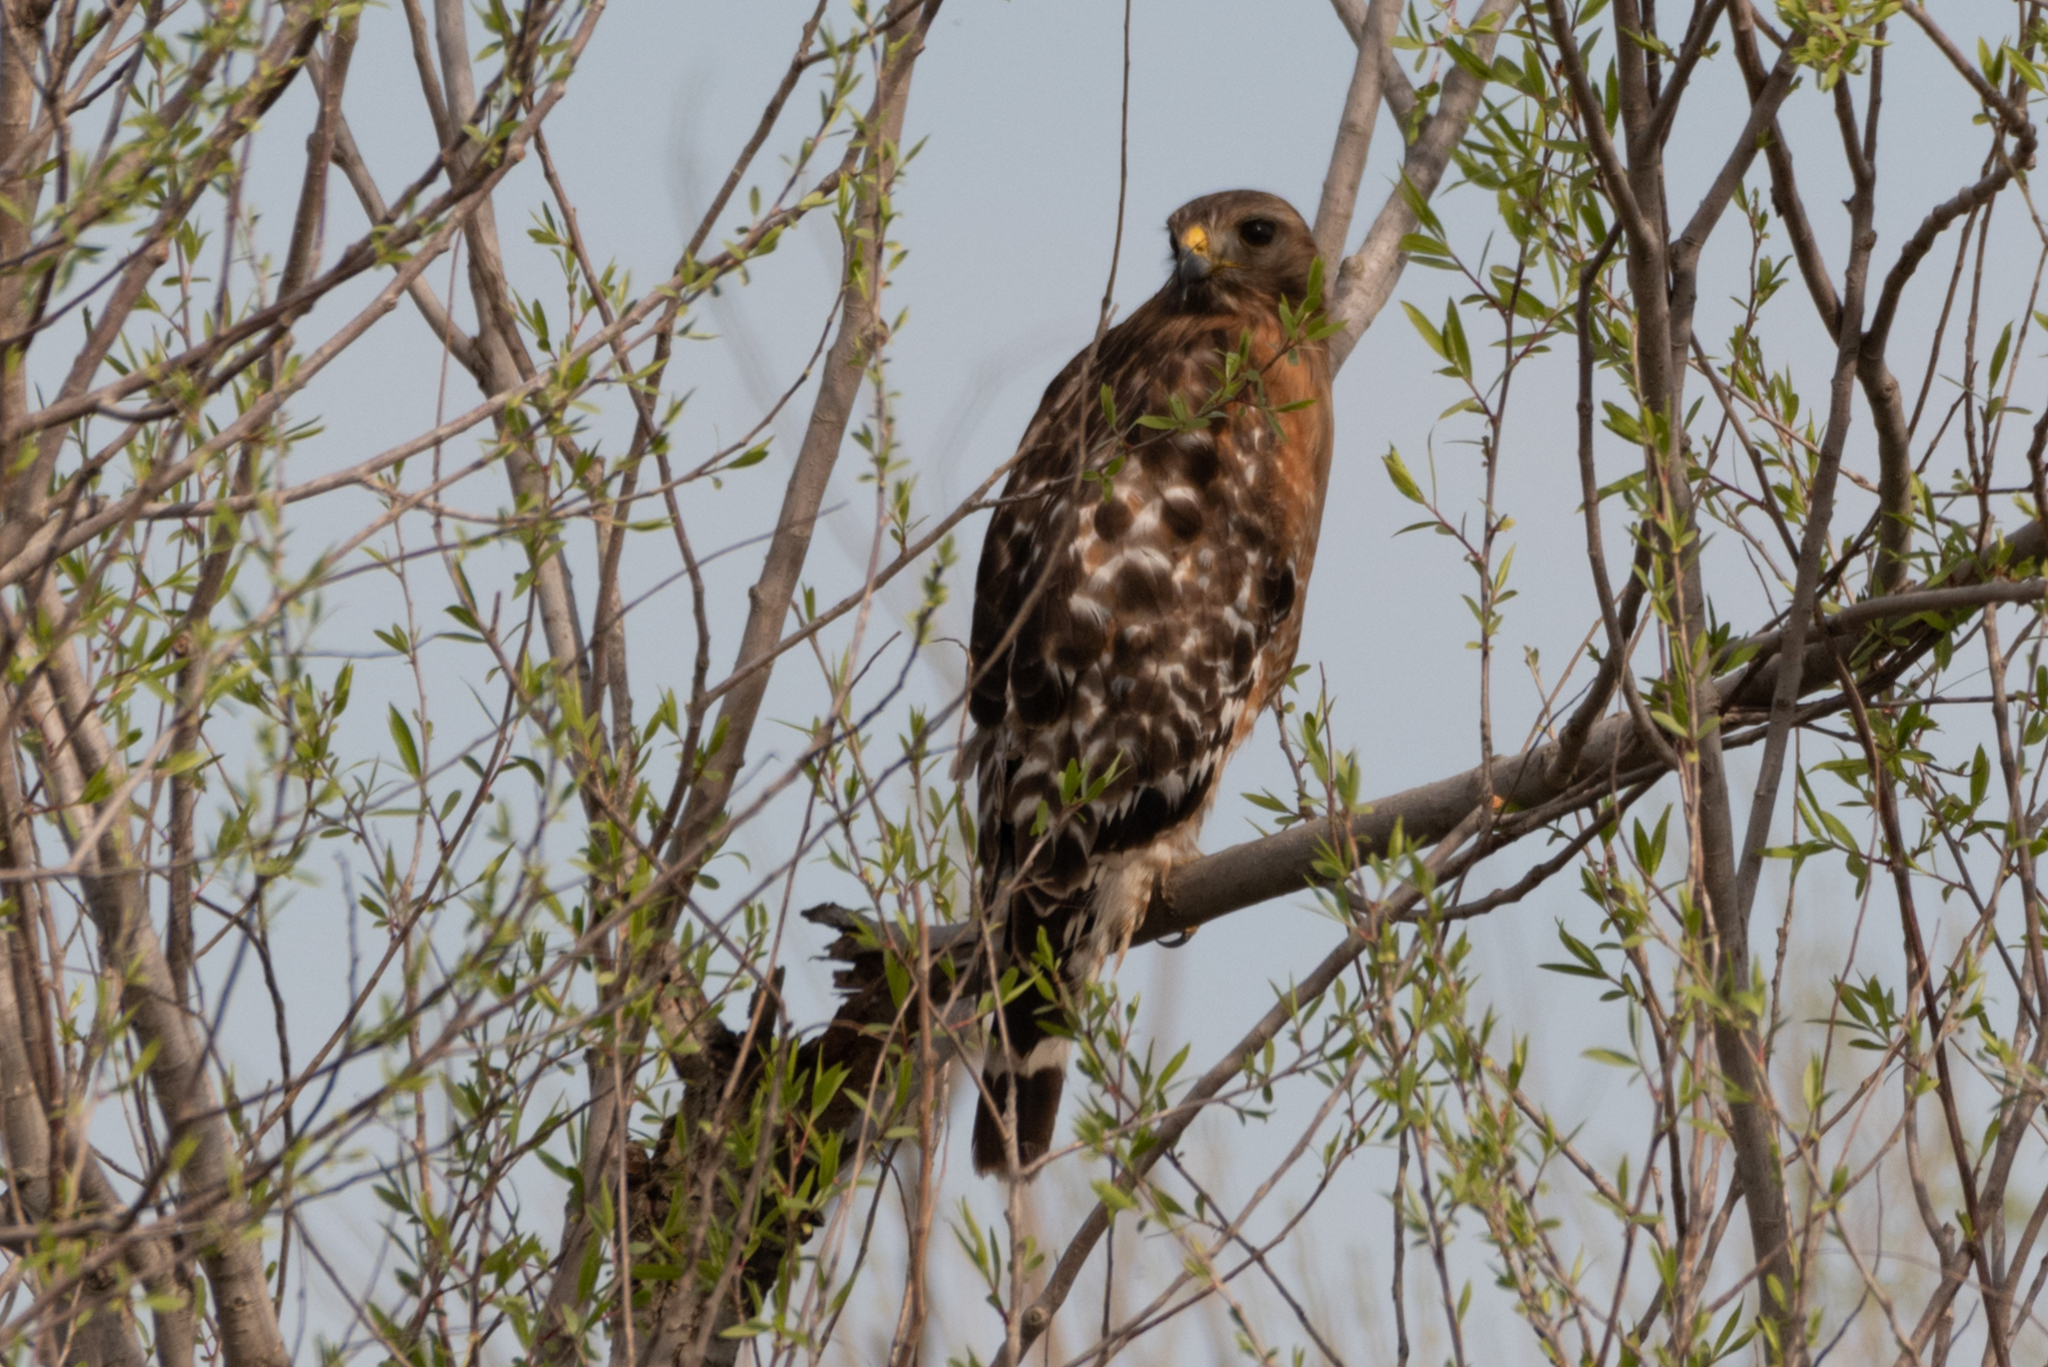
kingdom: Animalia
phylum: Chordata
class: Aves
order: Accipitriformes
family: Accipitridae
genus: Buteo
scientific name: Buteo lineatus
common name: Red-shouldered hawk
